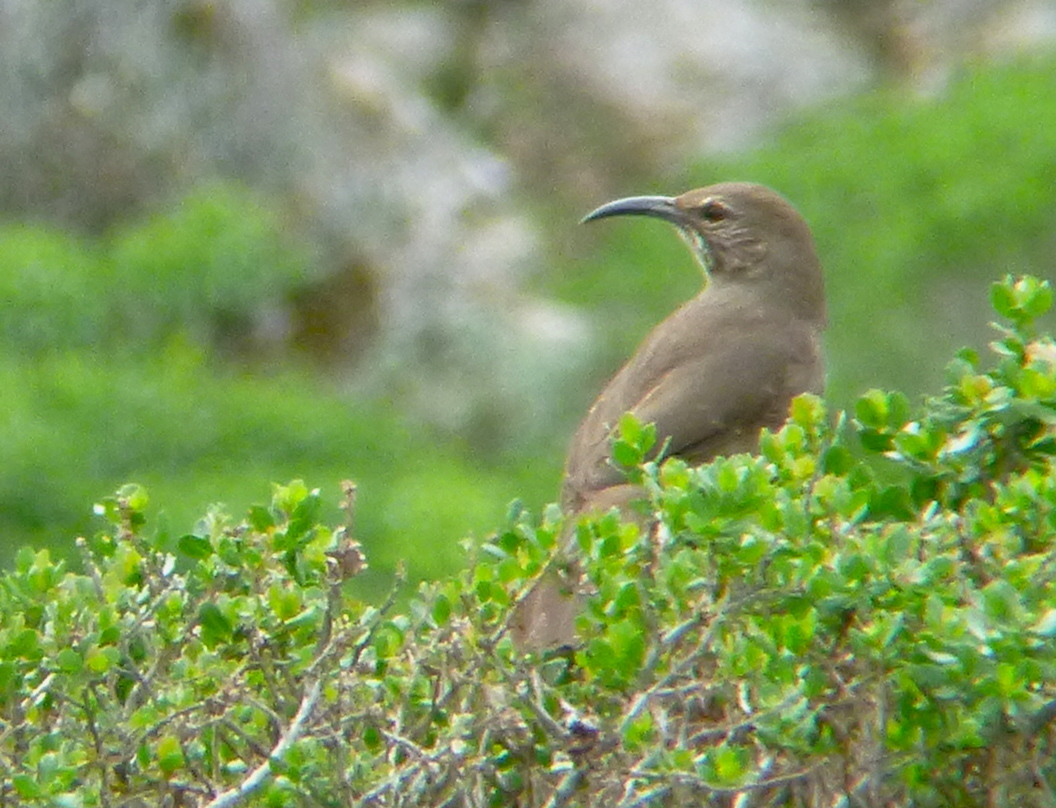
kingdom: Animalia
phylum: Chordata
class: Aves
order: Passeriformes
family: Mimidae
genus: Toxostoma
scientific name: Toxostoma redivivum
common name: California thrasher
